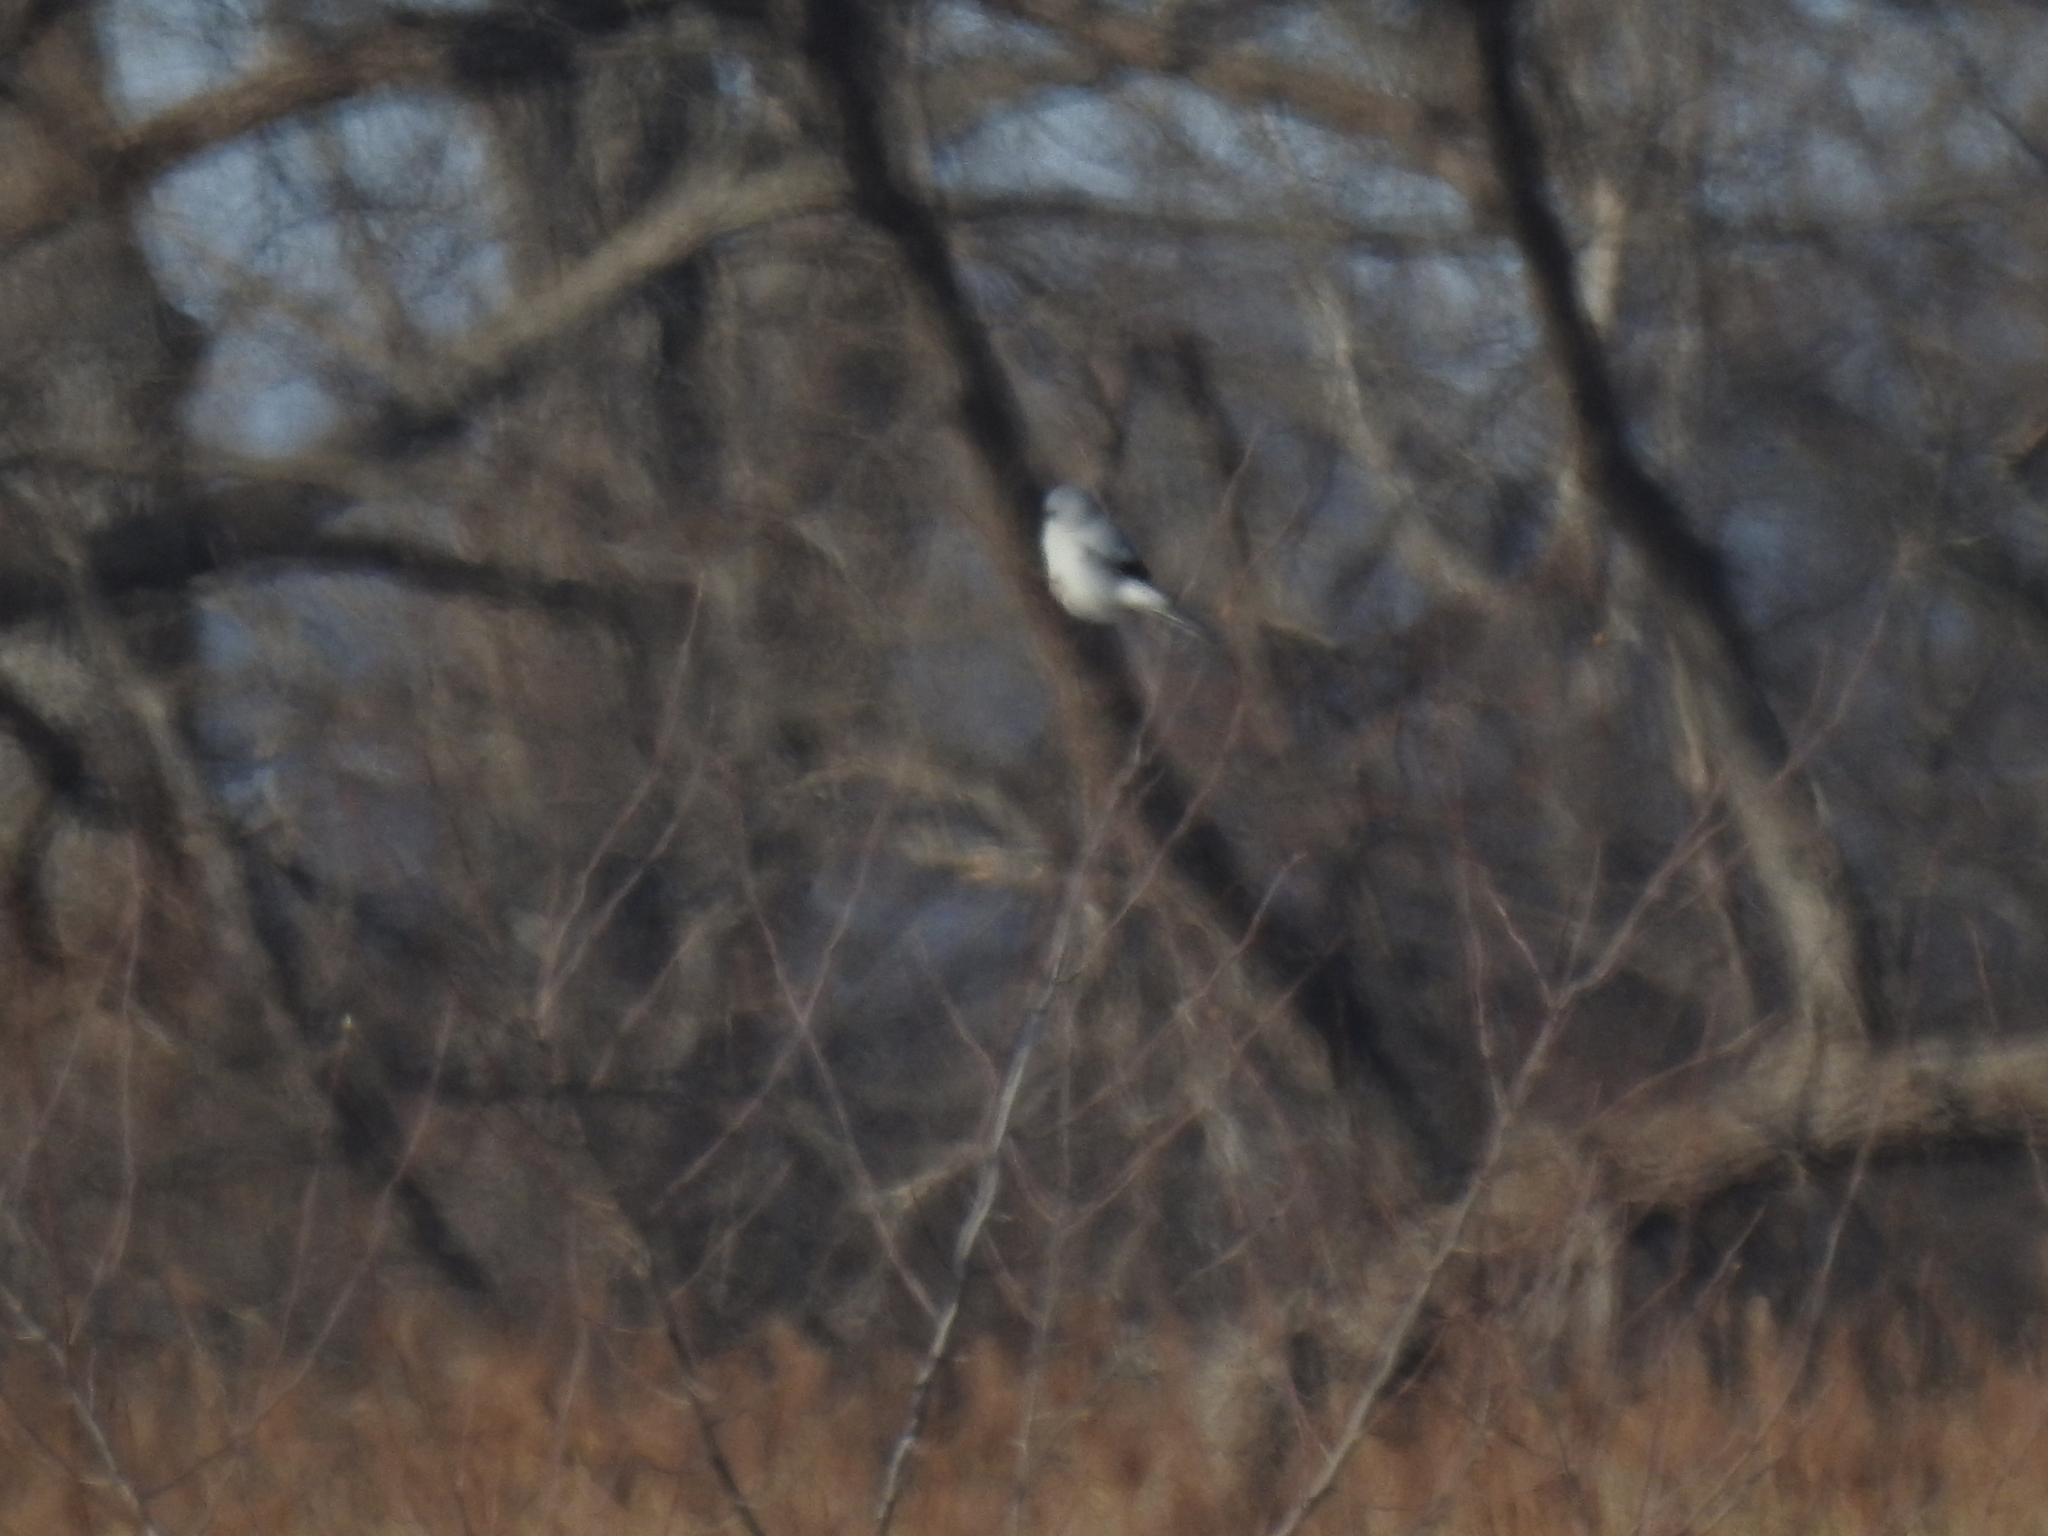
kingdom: Animalia
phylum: Chordata
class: Aves
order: Passeriformes
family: Laniidae
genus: Lanius
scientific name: Lanius borealis
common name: Northern shrike
